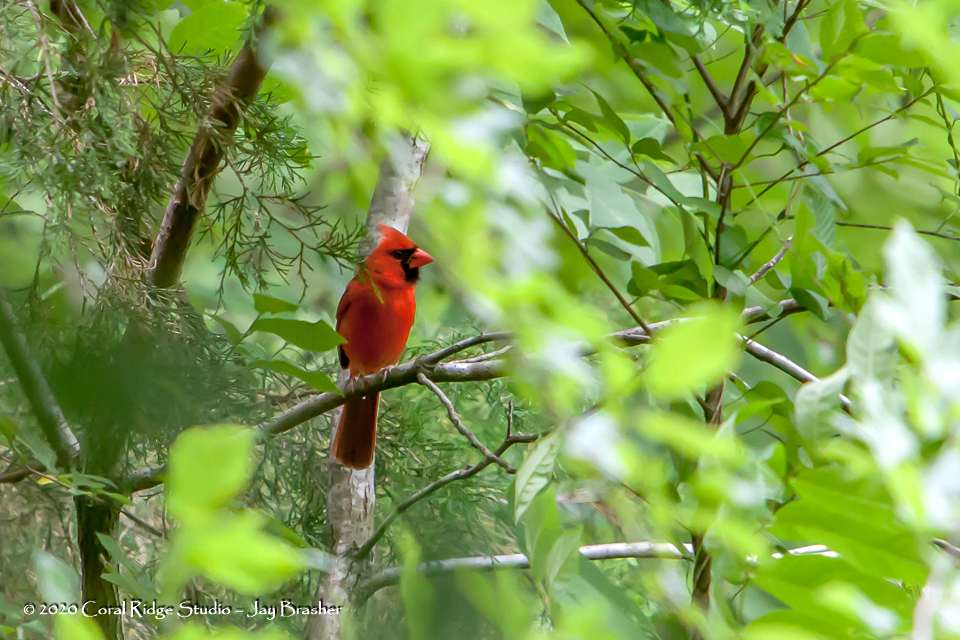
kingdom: Animalia
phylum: Chordata
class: Aves
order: Passeriformes
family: Cardinalidae
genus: Cardinalis
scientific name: Cardinalis cardinalis
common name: Northern cardinal
